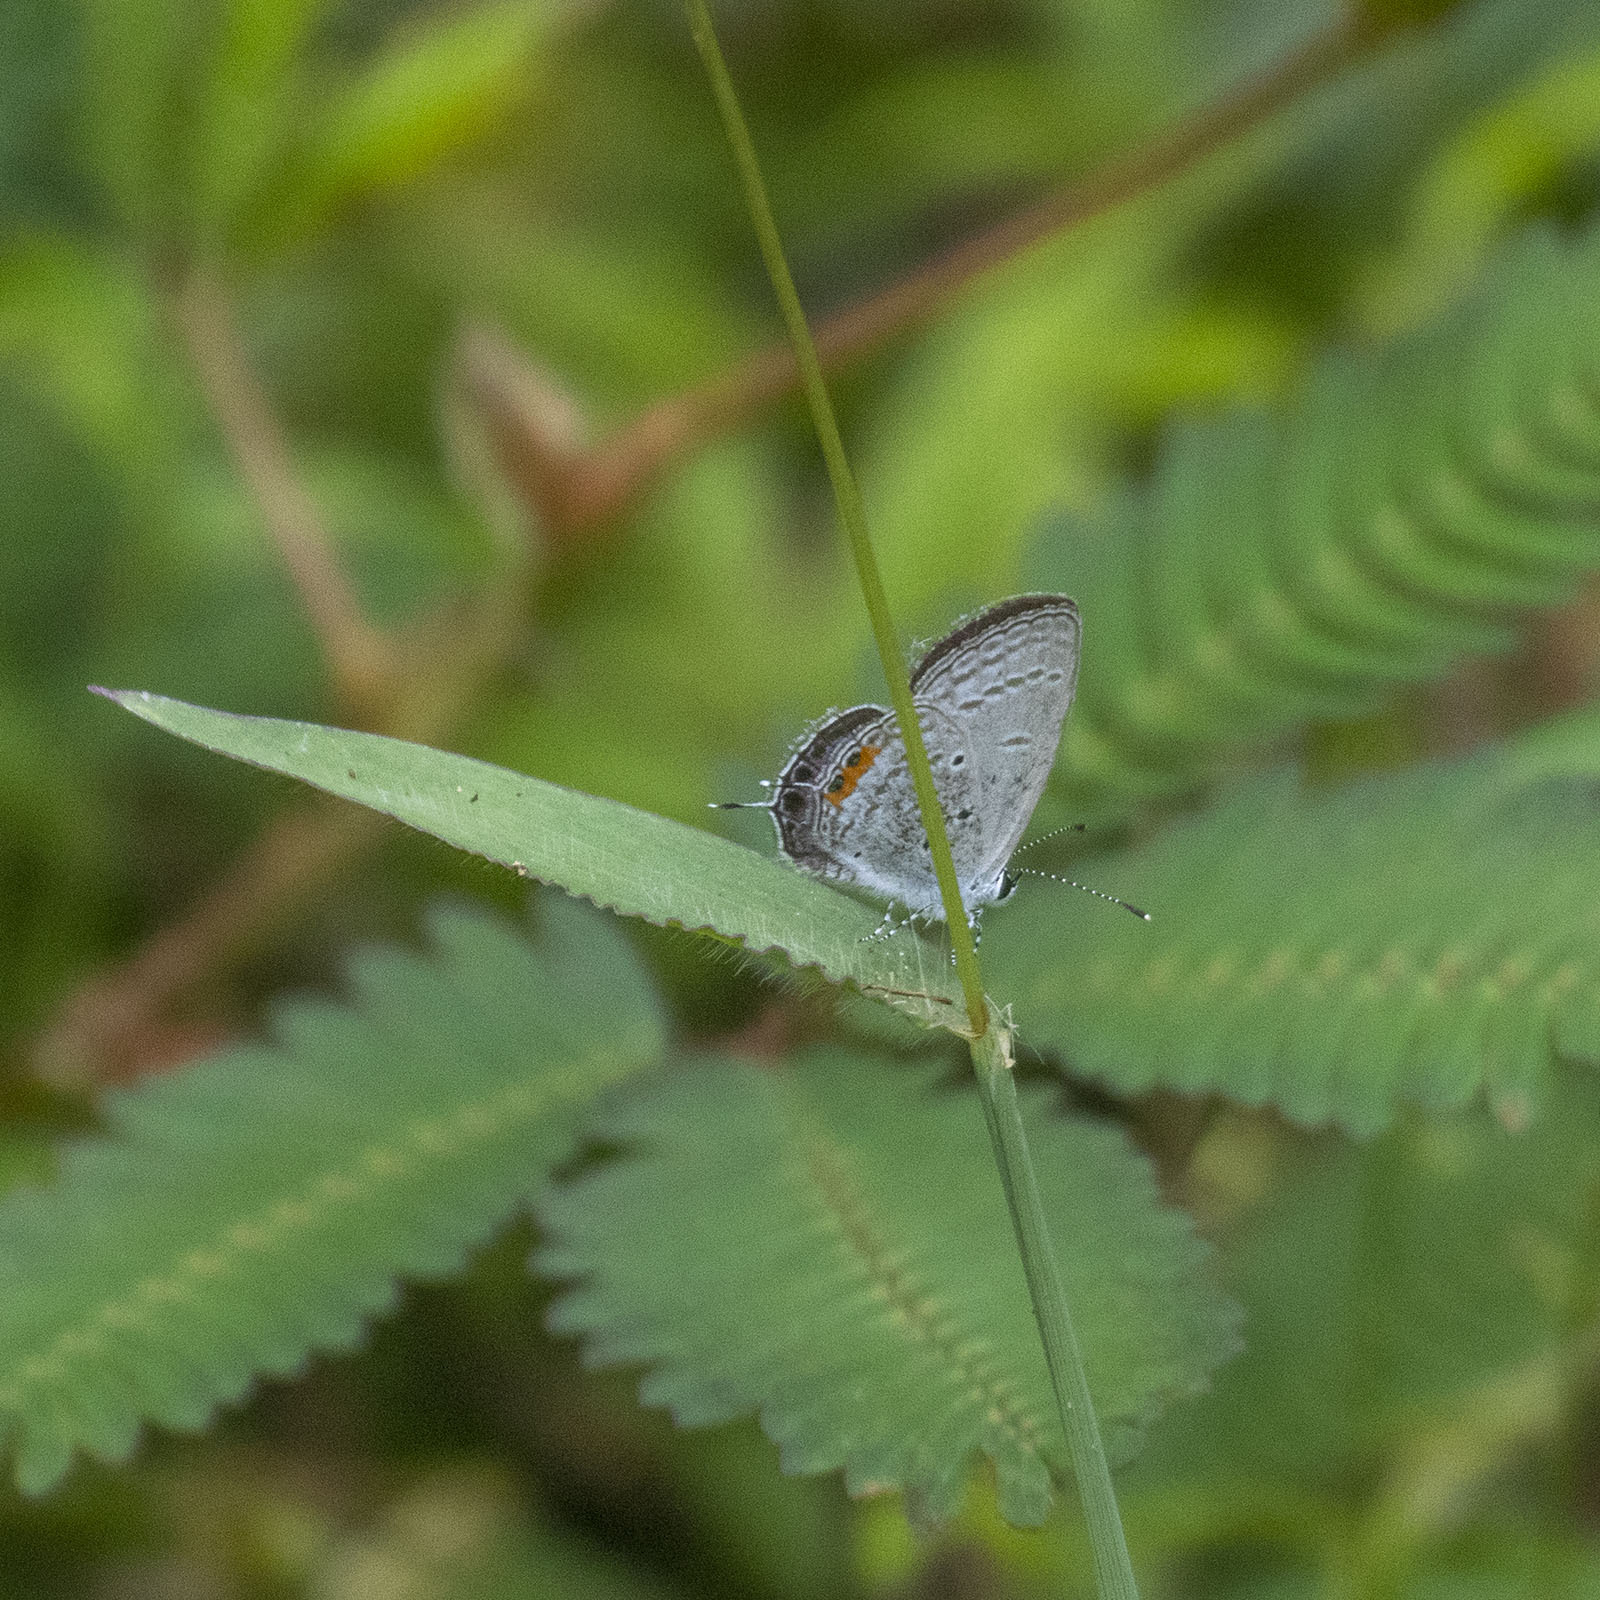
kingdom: Animalia
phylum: Arthropoda
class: Insecta
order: Lepidoptera
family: Lycaenidae
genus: Everes
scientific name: Everes lacturnus
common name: Orange-tipped pea-blue
